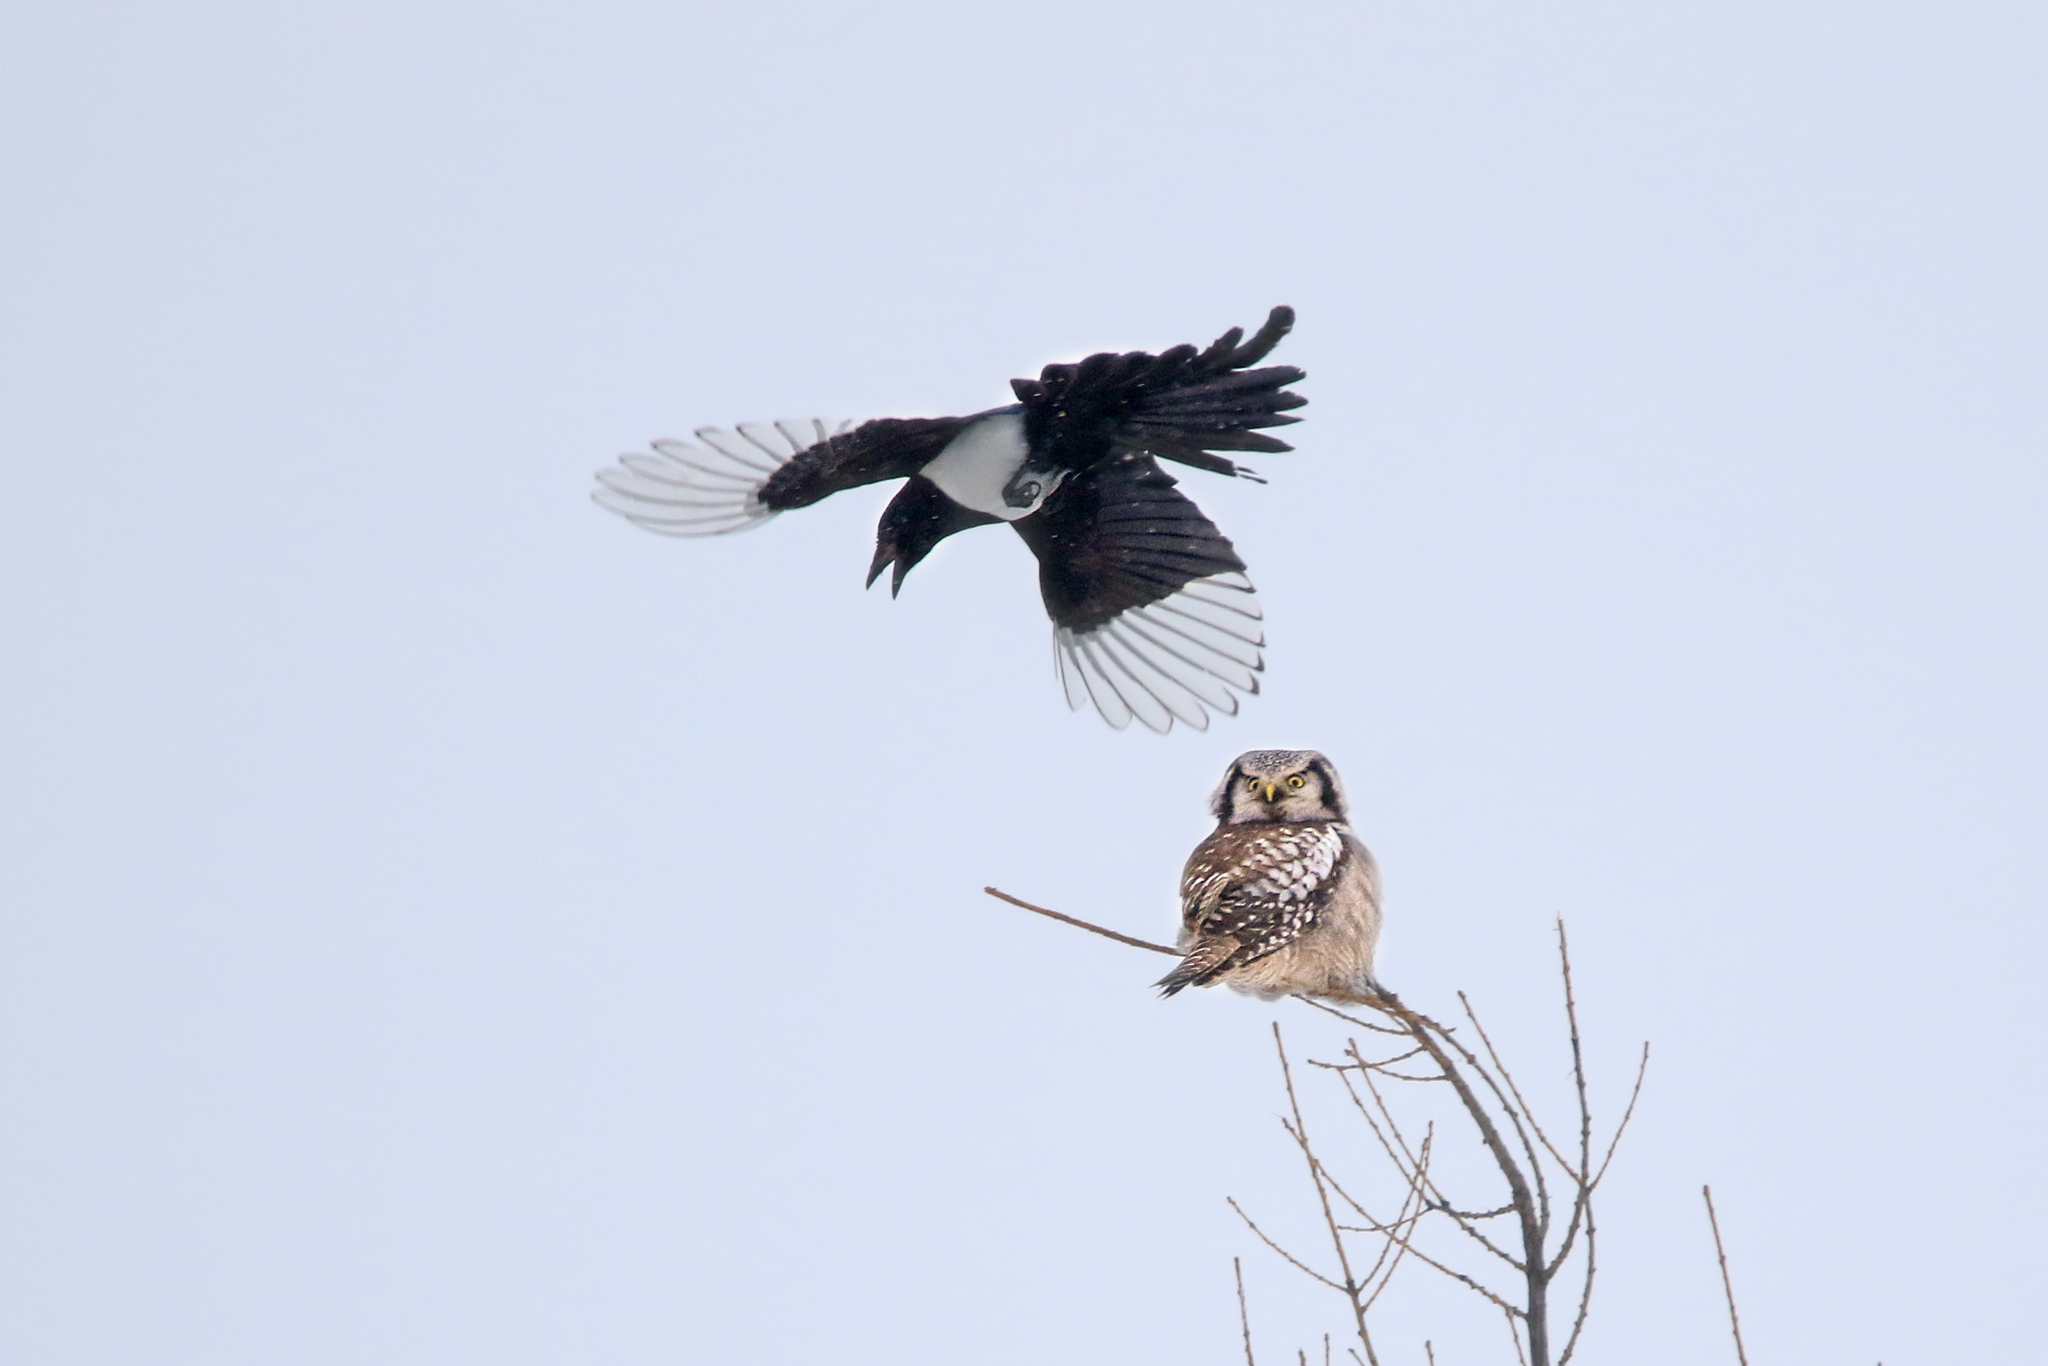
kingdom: Animalia
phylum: Chordata
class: Aves
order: Strigiformes
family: Strigidae
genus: Surnia
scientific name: Surnia ulula
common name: Northern hawk-owl
